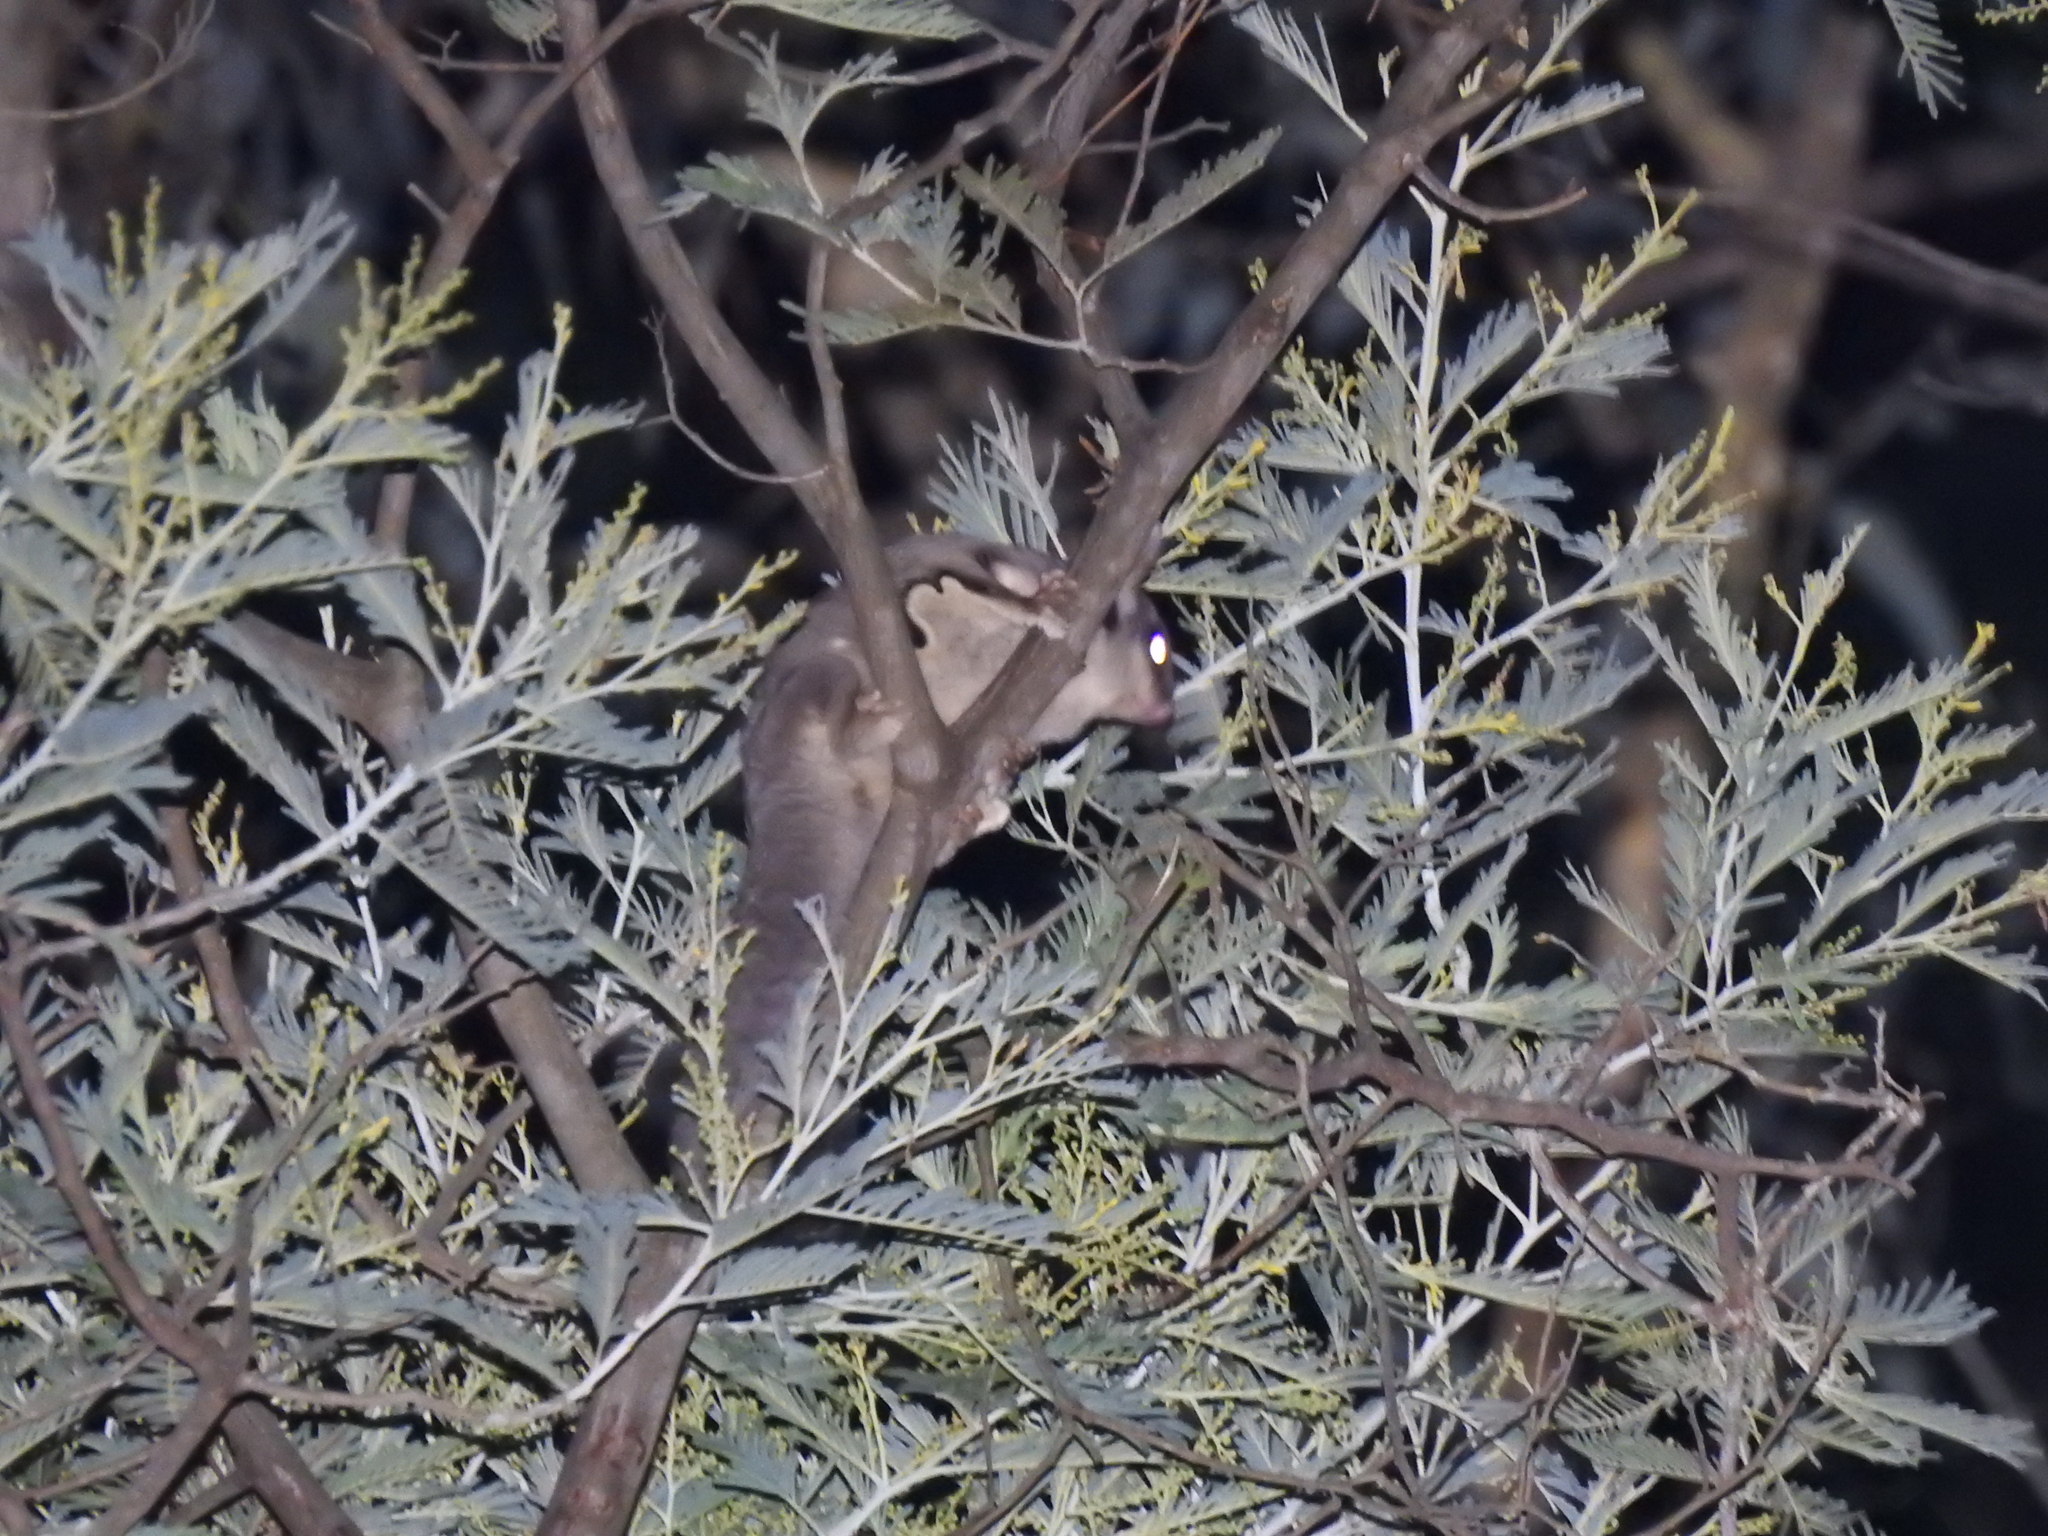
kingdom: Animalia
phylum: Chordata
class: Mammalia
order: Diprotodontia
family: Petauridae
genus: Petaurus
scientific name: Petaurus breviceps
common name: Sugar glider
